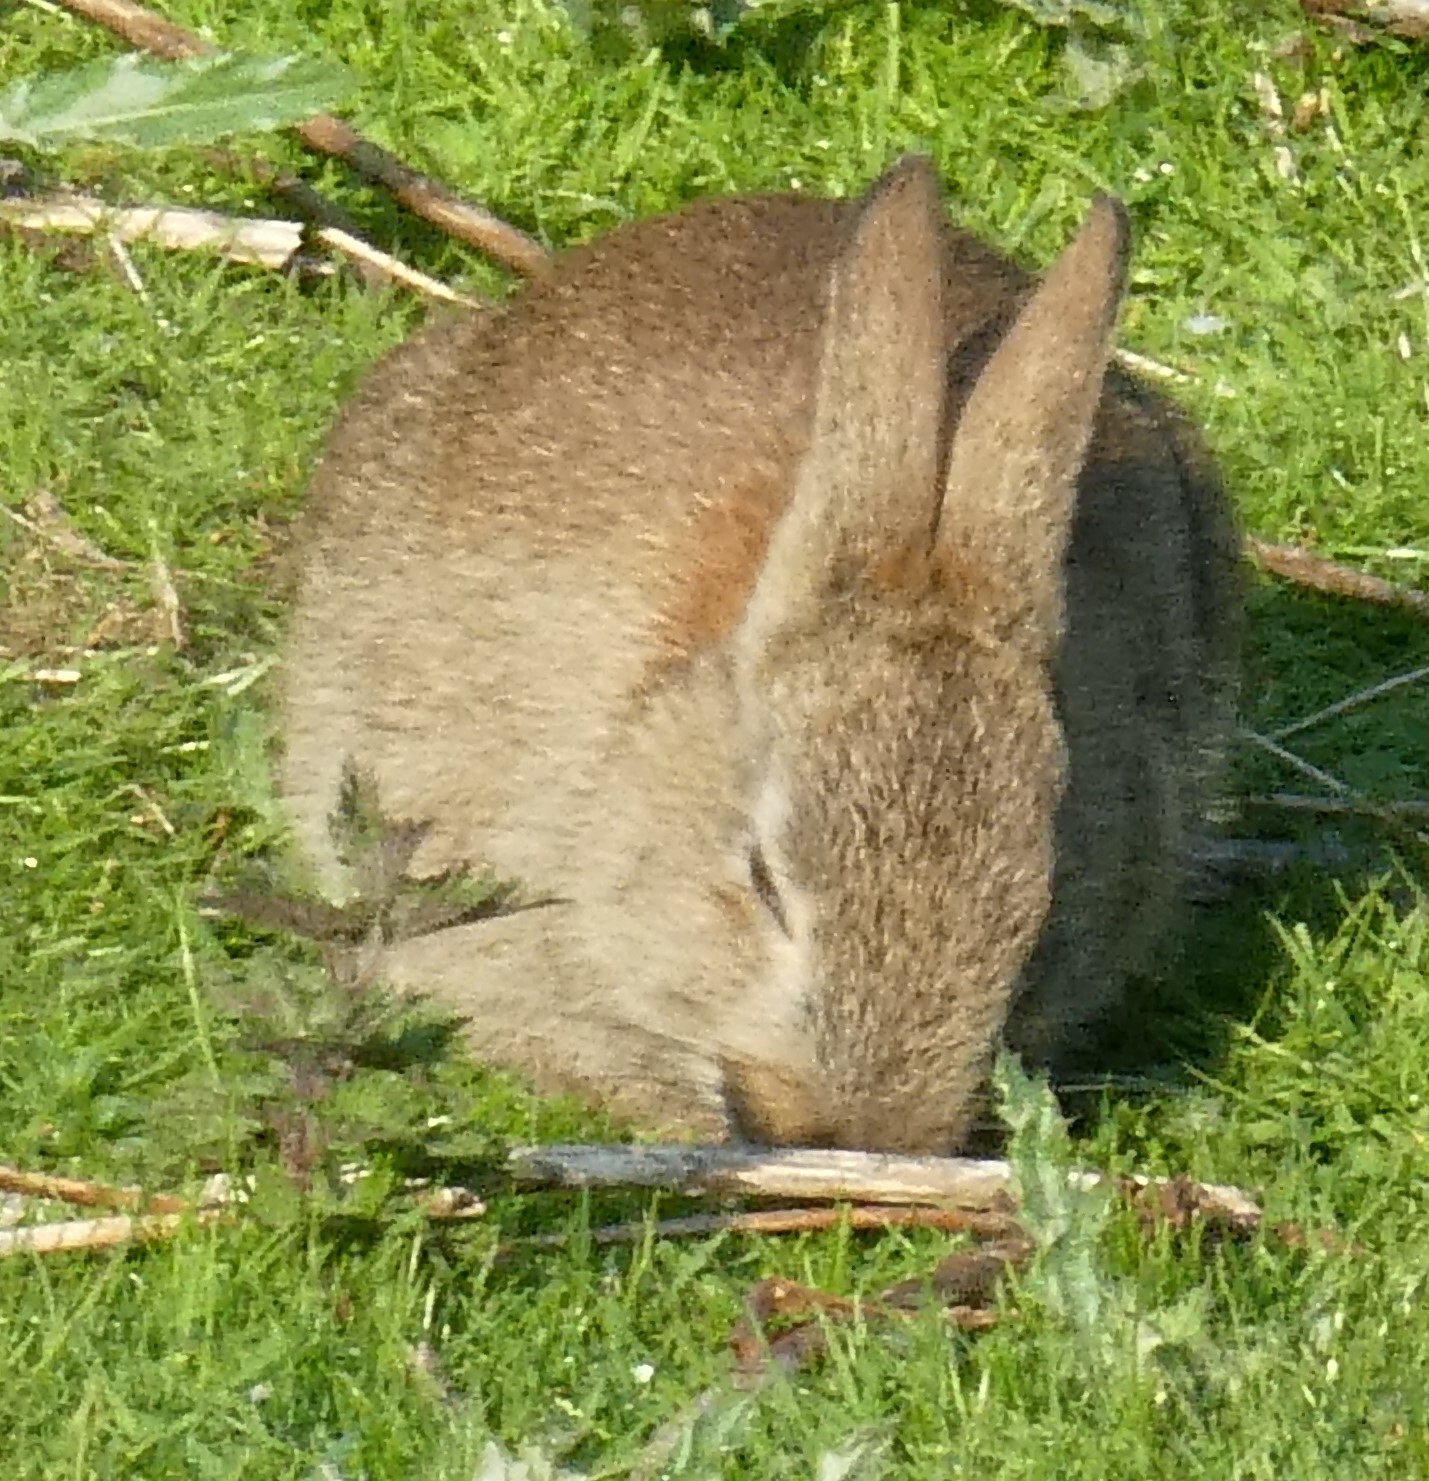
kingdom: Animalia
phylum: Chordata
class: Mammalia
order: Lagomorpha
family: Leporidae
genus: Oryctolagus
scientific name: Oryctolagus cuniculus
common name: European rabbit
